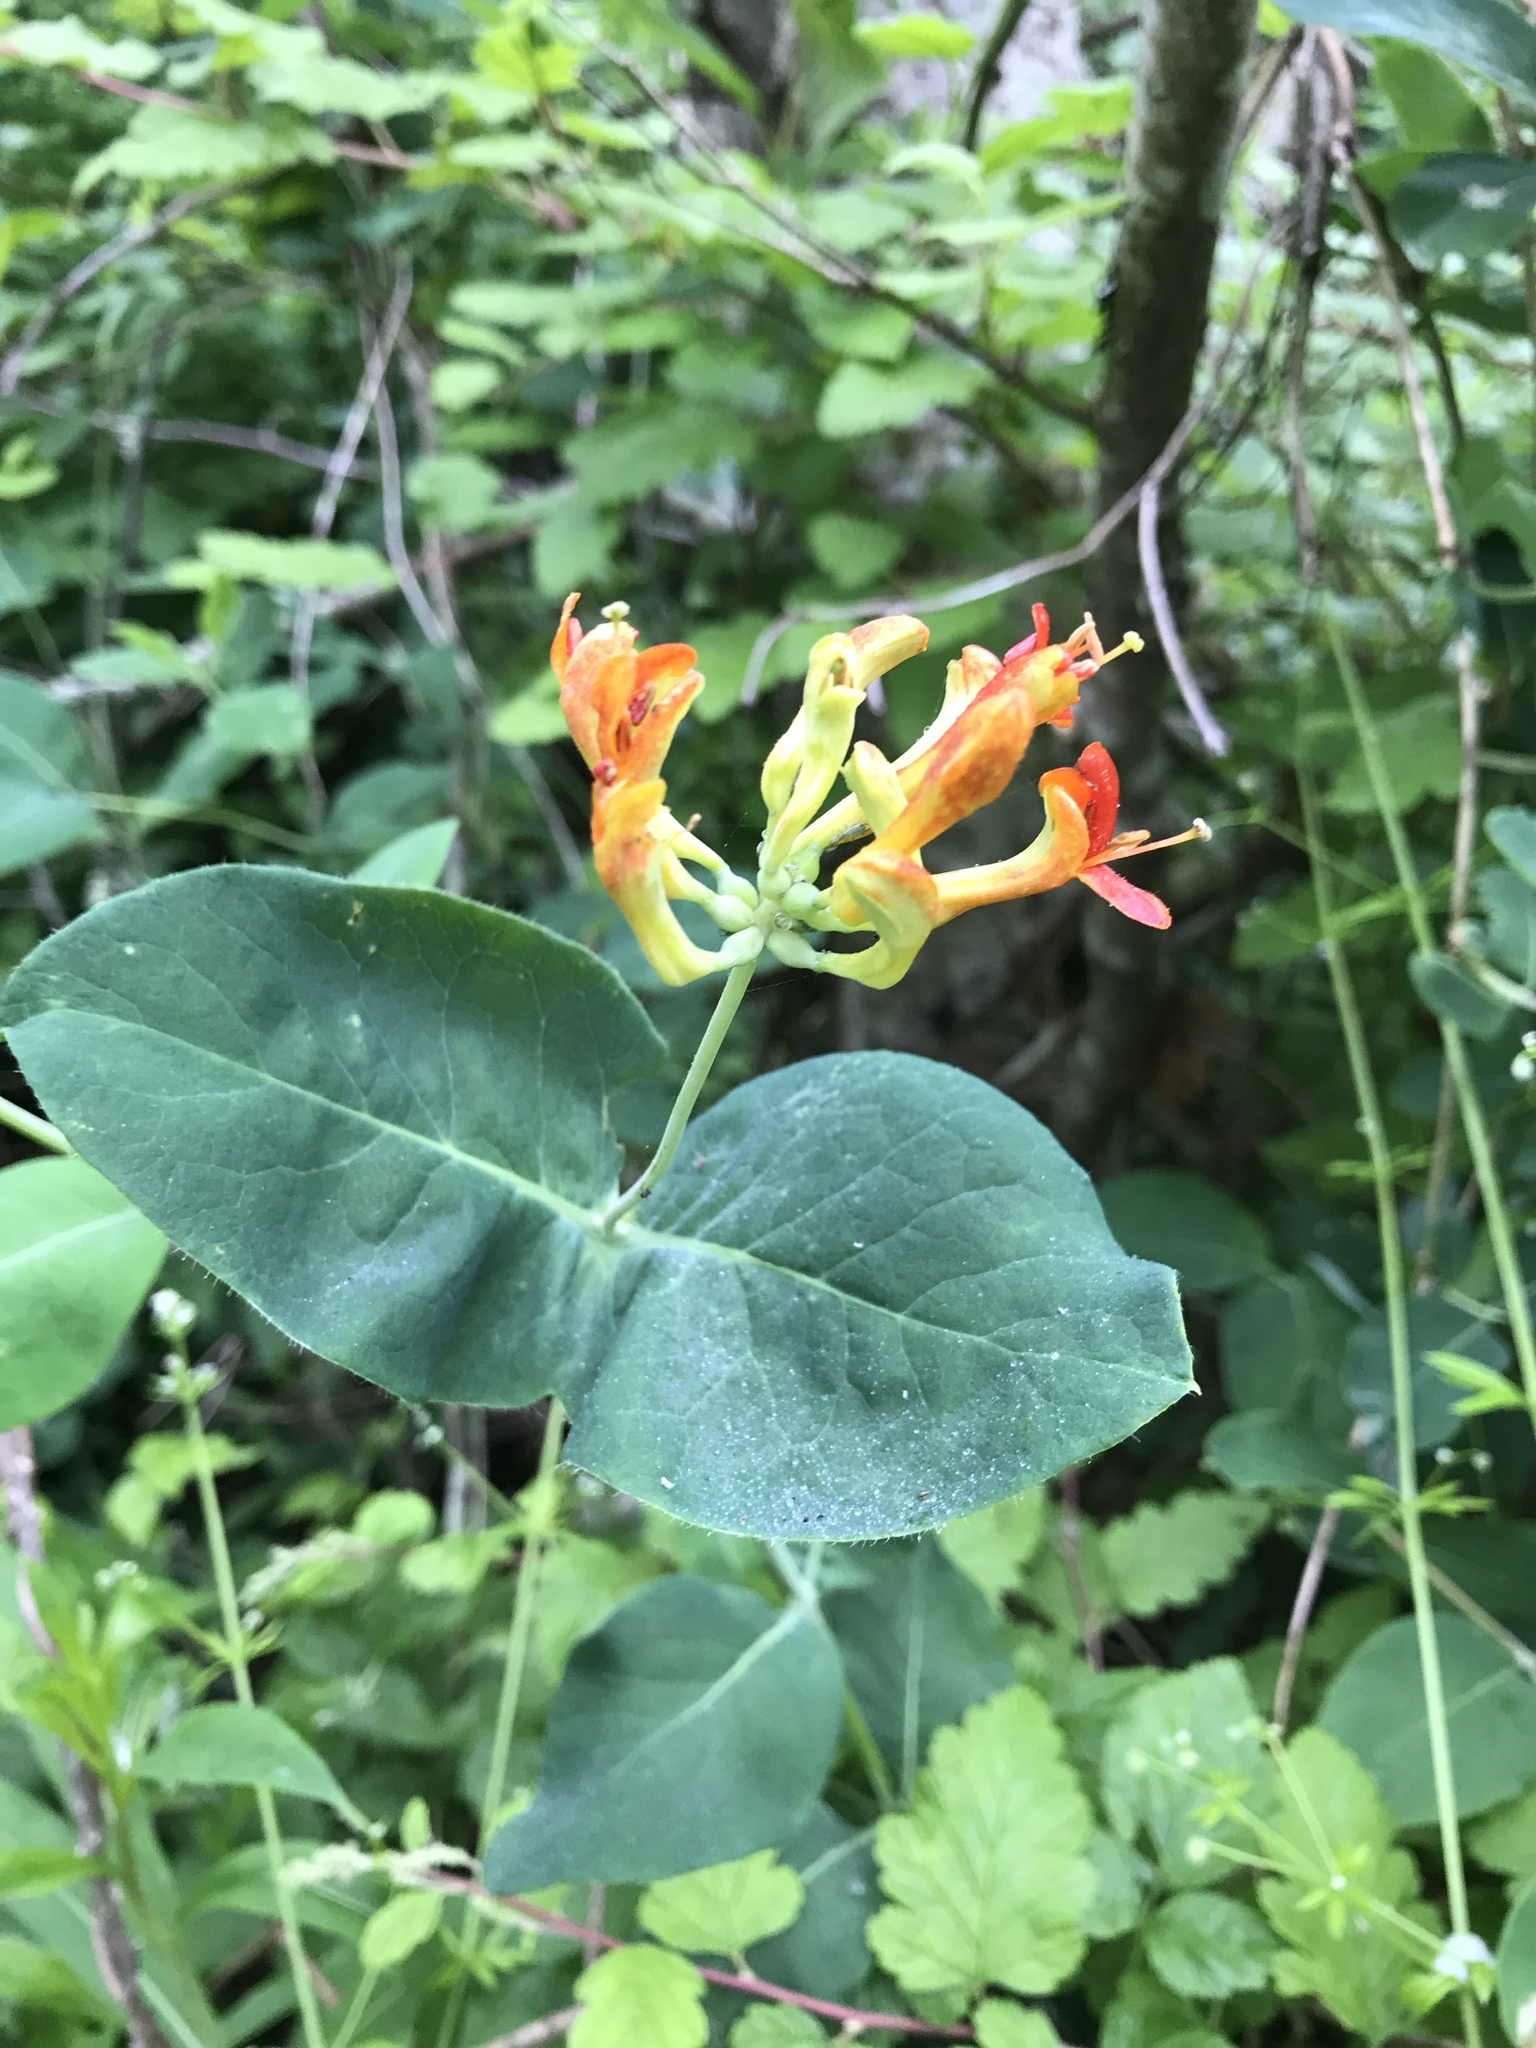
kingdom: Plantae
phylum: Tracheophyta
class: Magnoliopsida
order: Dipsacales
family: Caprifoliaceae
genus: Lonicera
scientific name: Lonicera ciliosa
